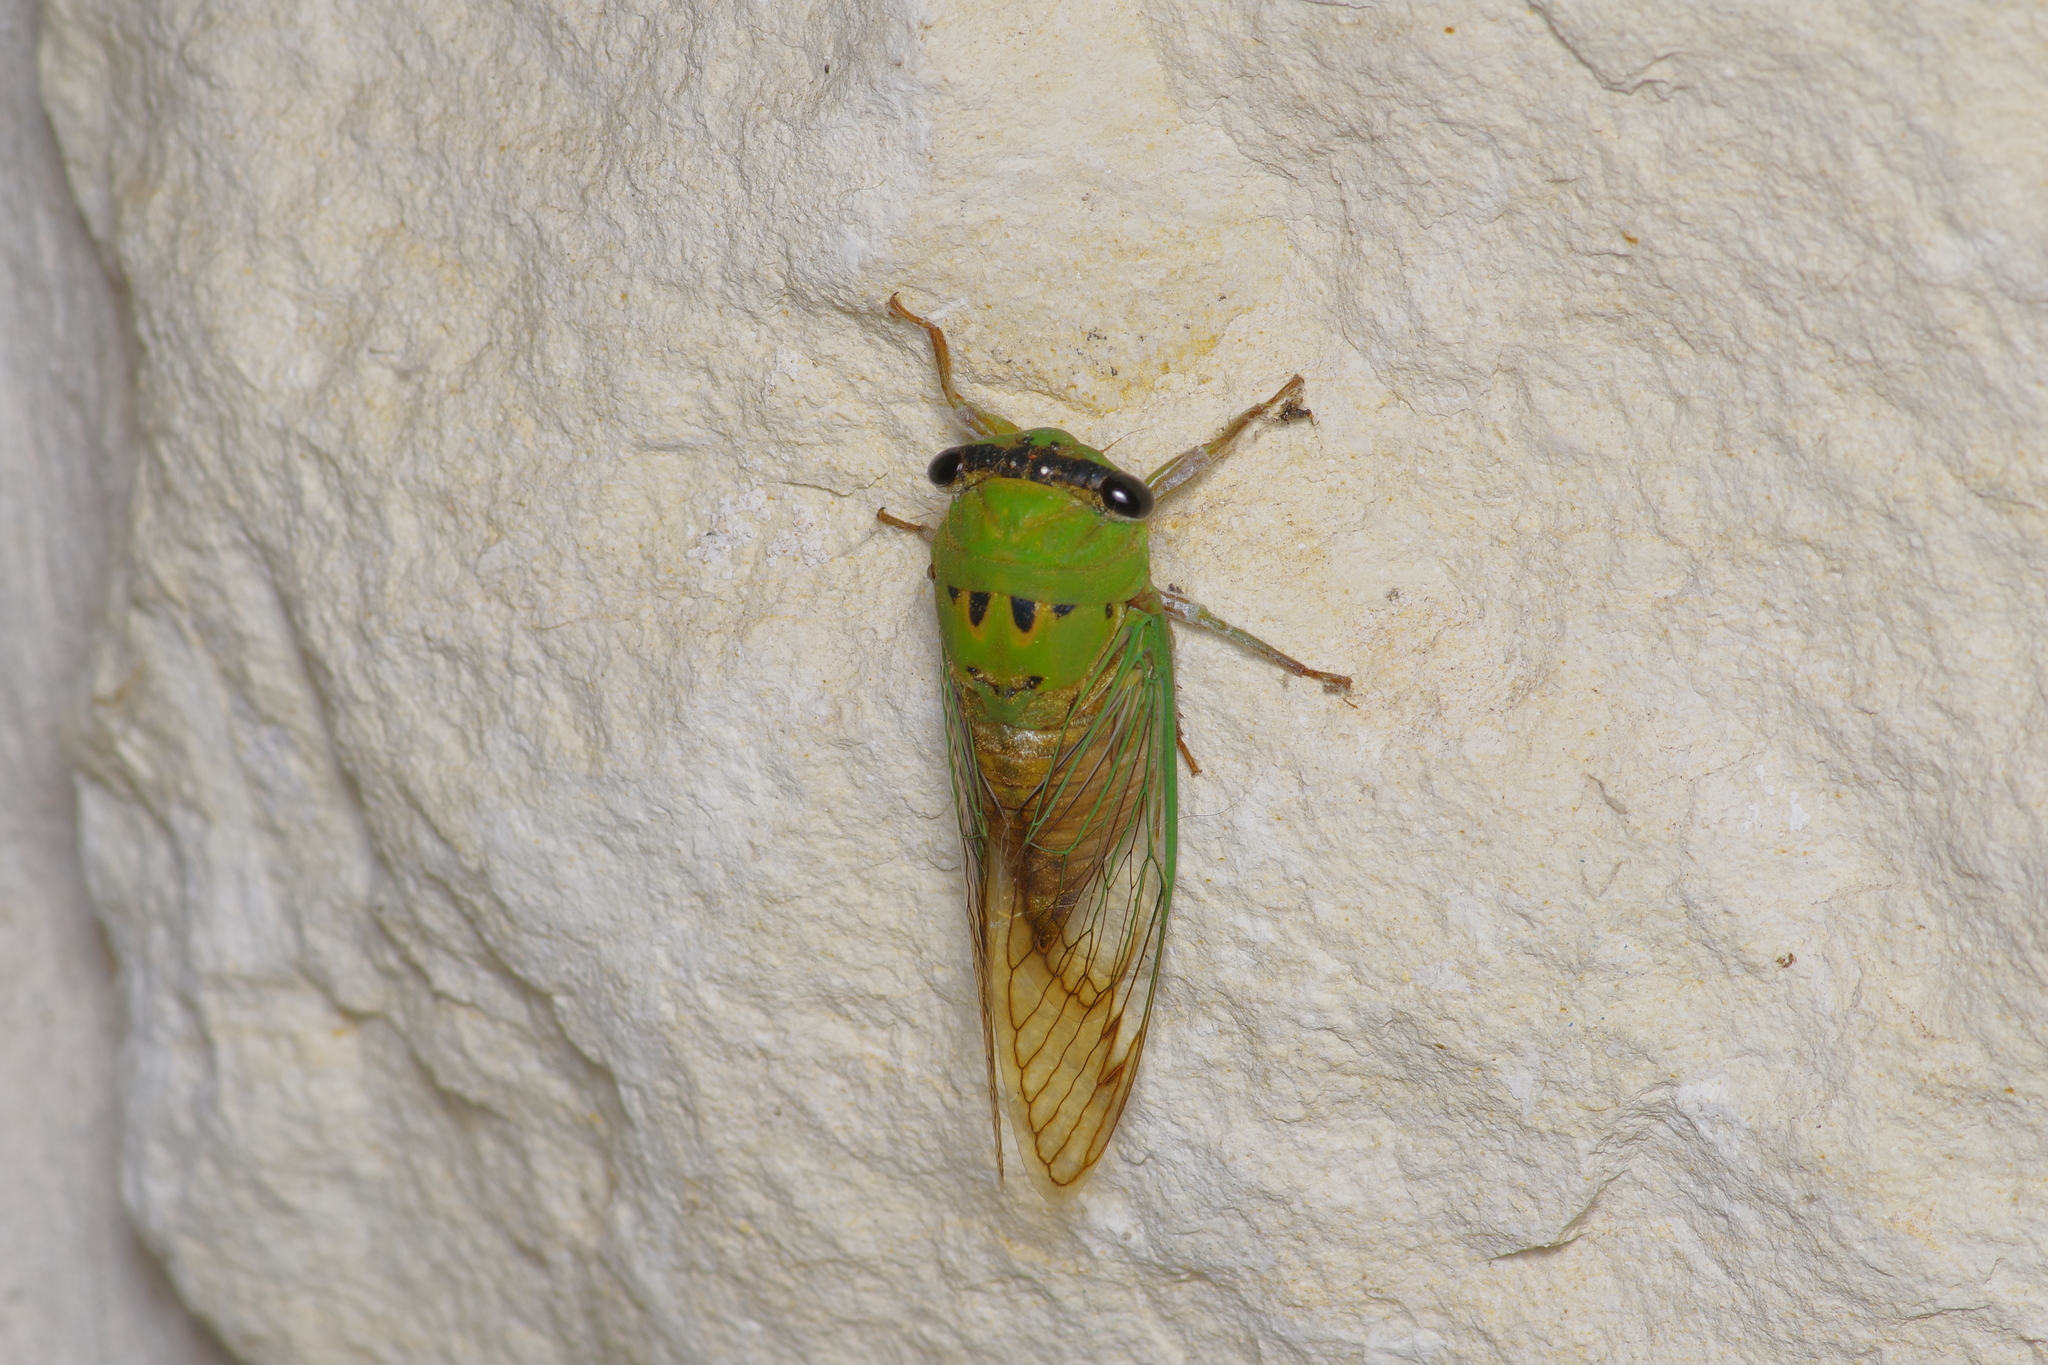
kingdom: Animalia
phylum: Arthropoda
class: Insecta
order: Hemiptera
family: Cicadidae
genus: Neotibicen
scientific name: Neotibicen superbus
